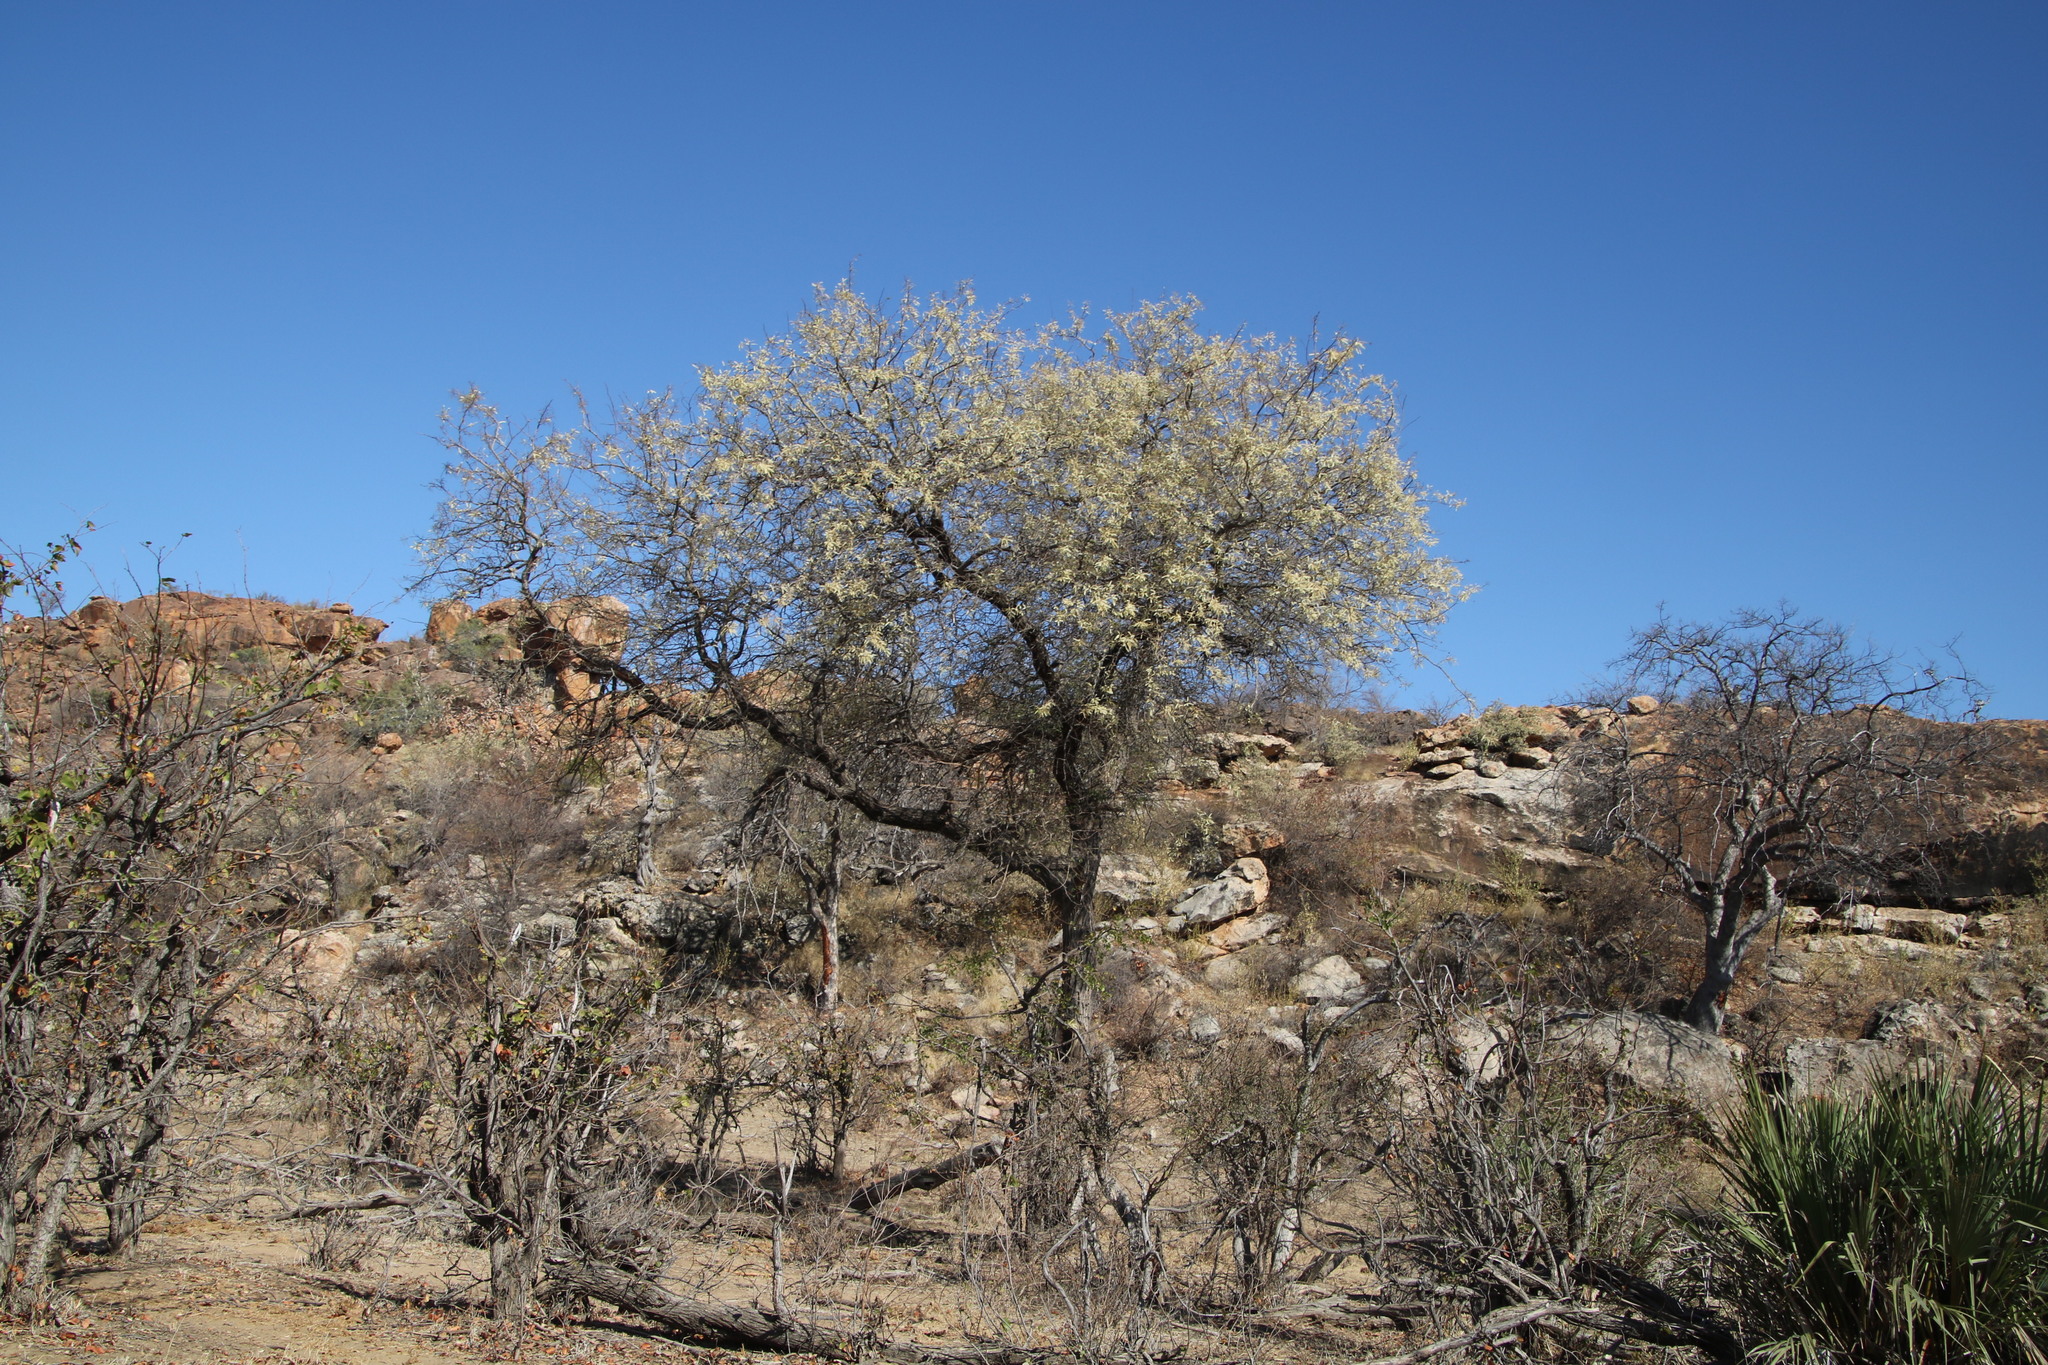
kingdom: Plantae
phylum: Tracheophyta
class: Magnoliopsida
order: Fabales
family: Fabaceae
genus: Senegalia
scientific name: Senegalia nigrescens
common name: Knobthorn
